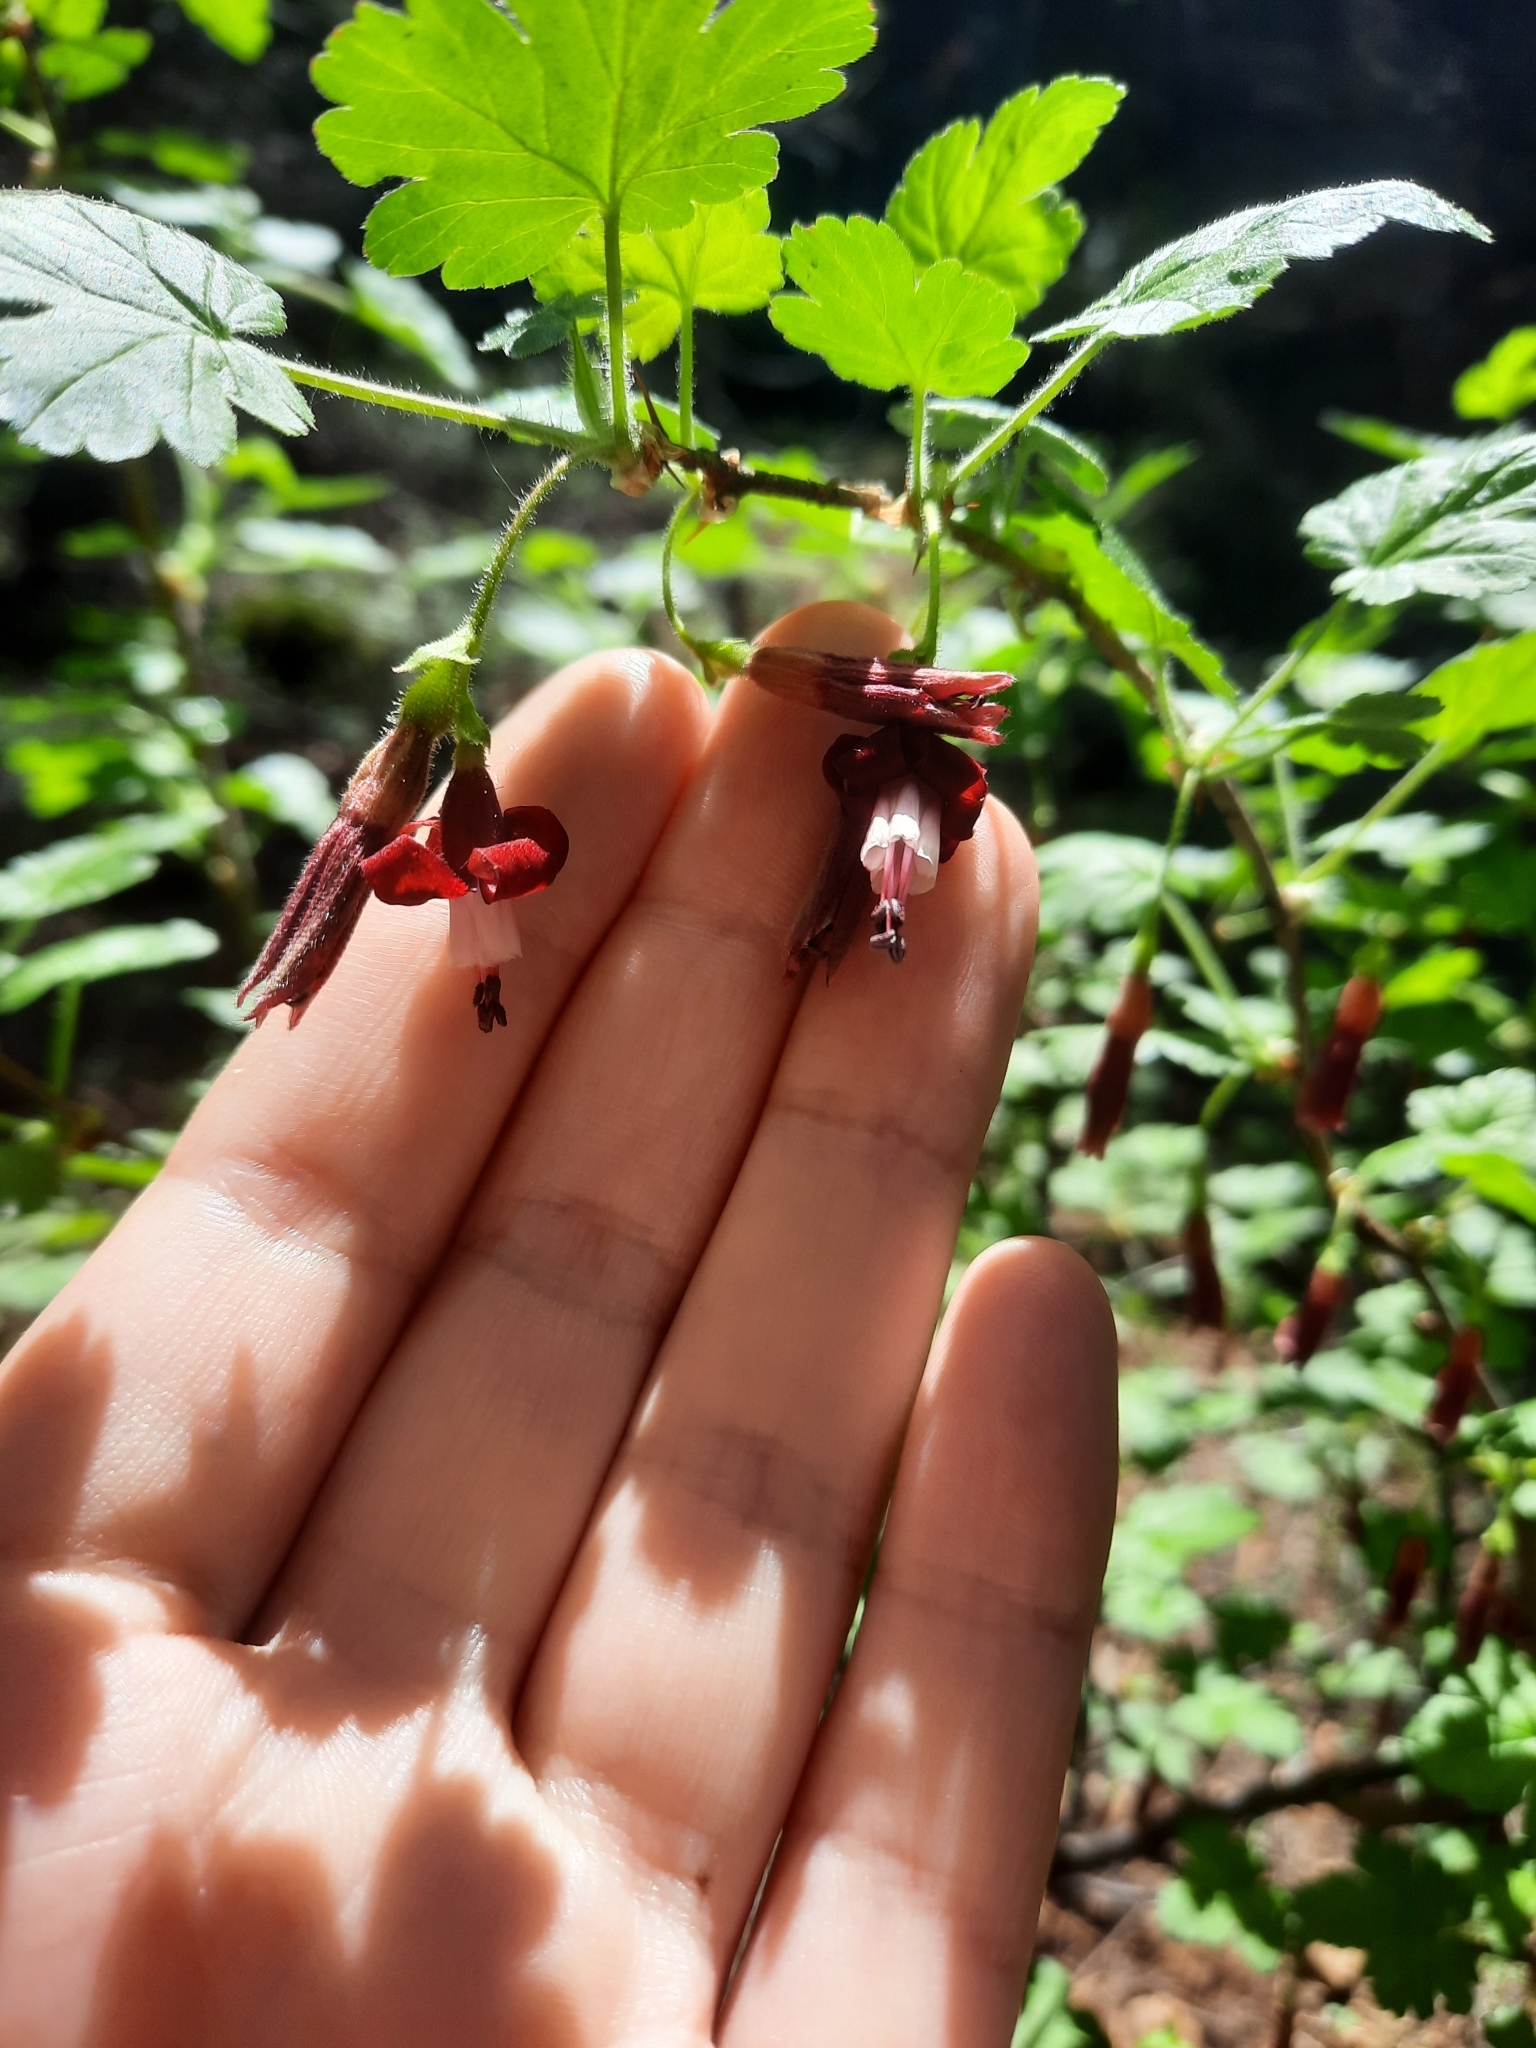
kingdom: Plantae
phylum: Tracheophyta
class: Magnoliopsida
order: Saxifragales
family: Grossulariaceae
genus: Ribes
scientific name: Ribes lobbii
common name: Gummy gooseberry
